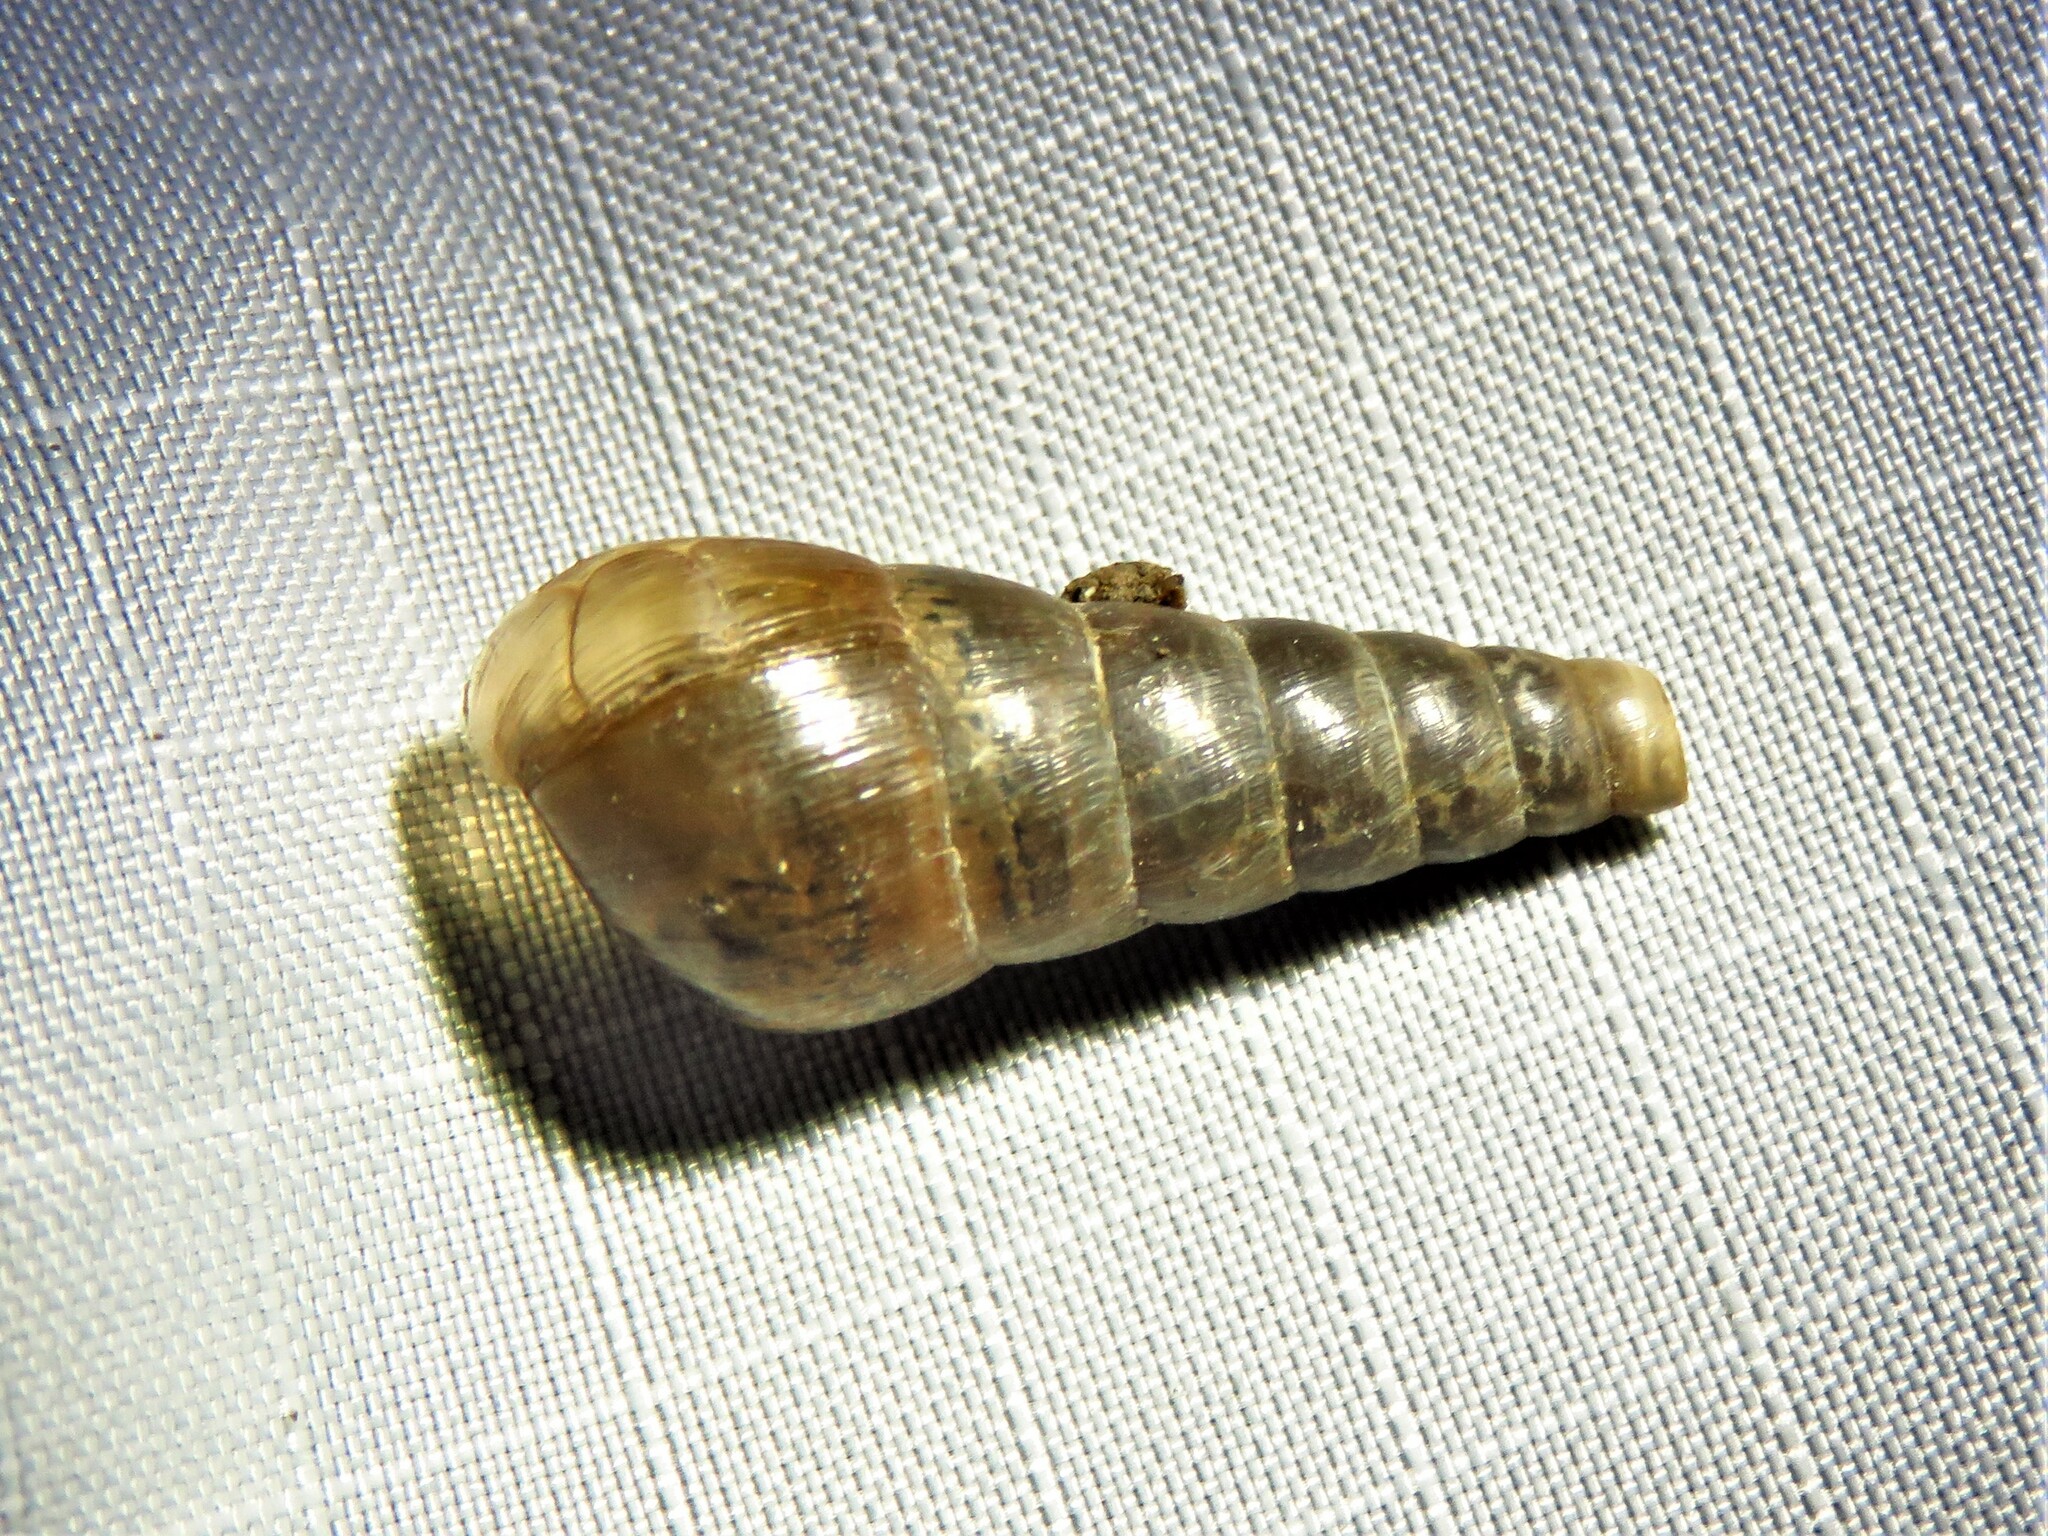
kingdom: Animalia
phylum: Mollusca
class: Gastropoda
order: Stylommatophora
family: Achatinidae
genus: Rumina
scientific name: Rumina decollata
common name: Decollate snail
